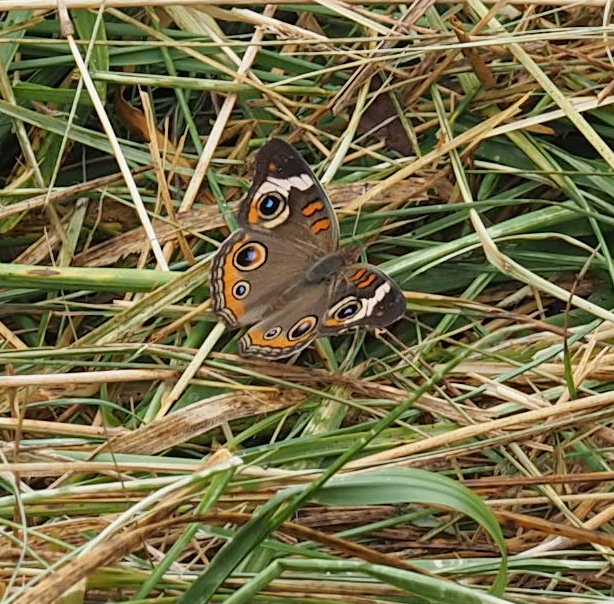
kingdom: Animalia
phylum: Arthropoda
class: Insecta
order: Lepidoptera
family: Nymphalidae
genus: Junonia
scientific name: Junonia coenia
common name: Common buckeye
